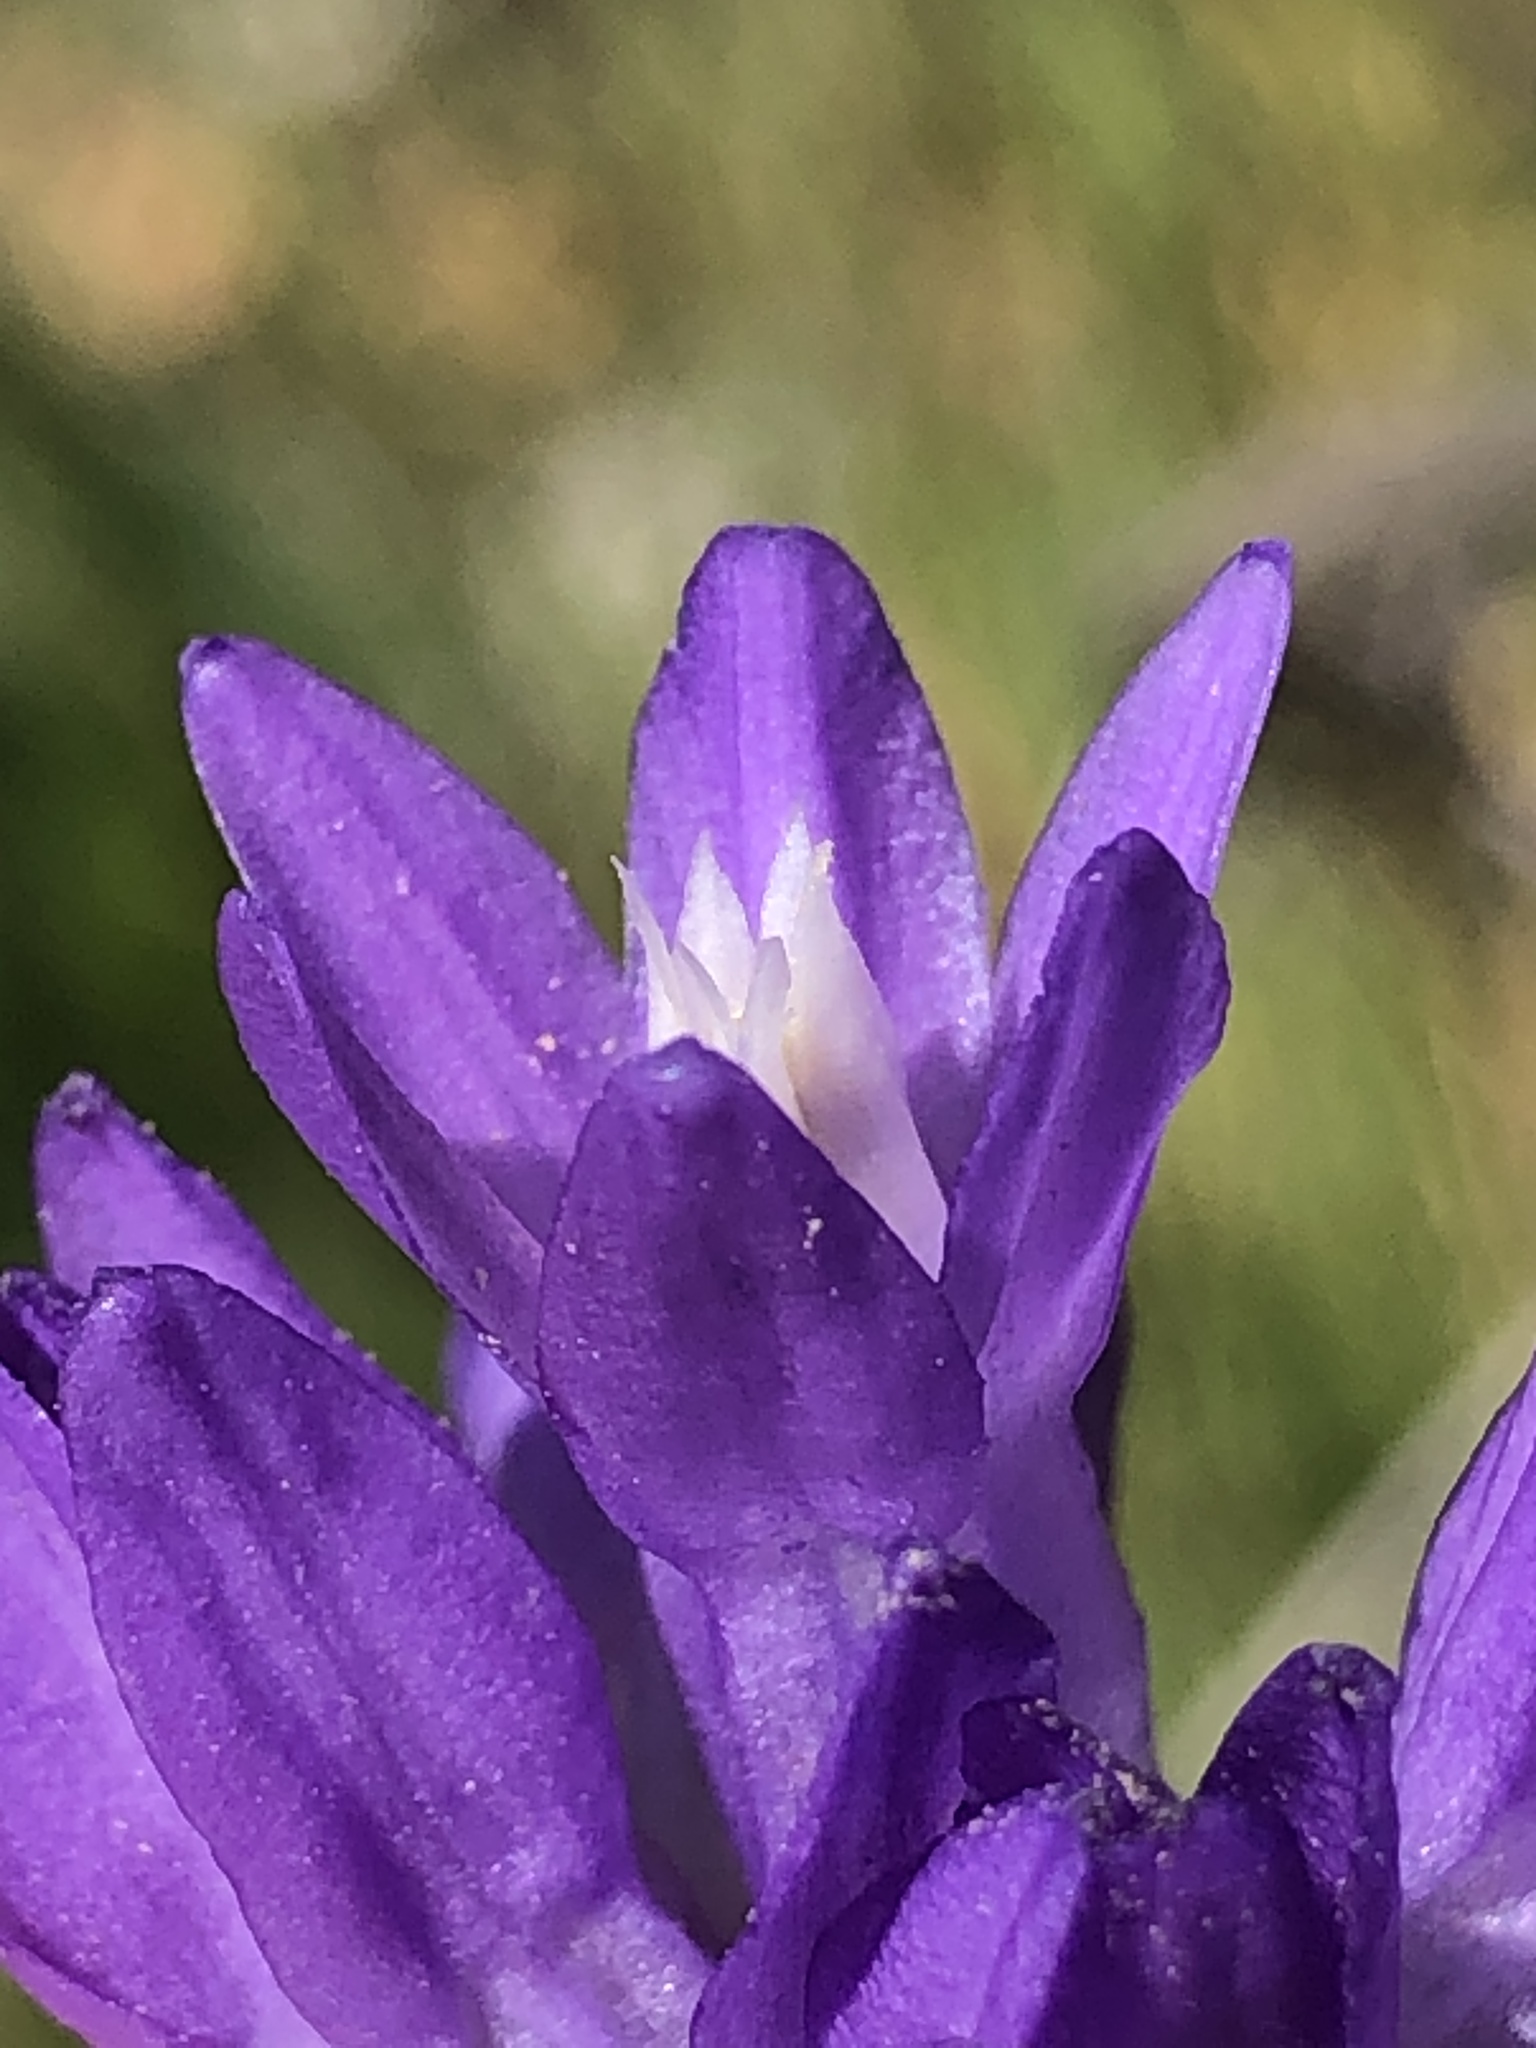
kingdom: Plantae
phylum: Tracheophyta
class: Liliopsida
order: Asparagales
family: Asparagaceae
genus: Dipterostemon
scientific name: Dipterostemon capitatus
